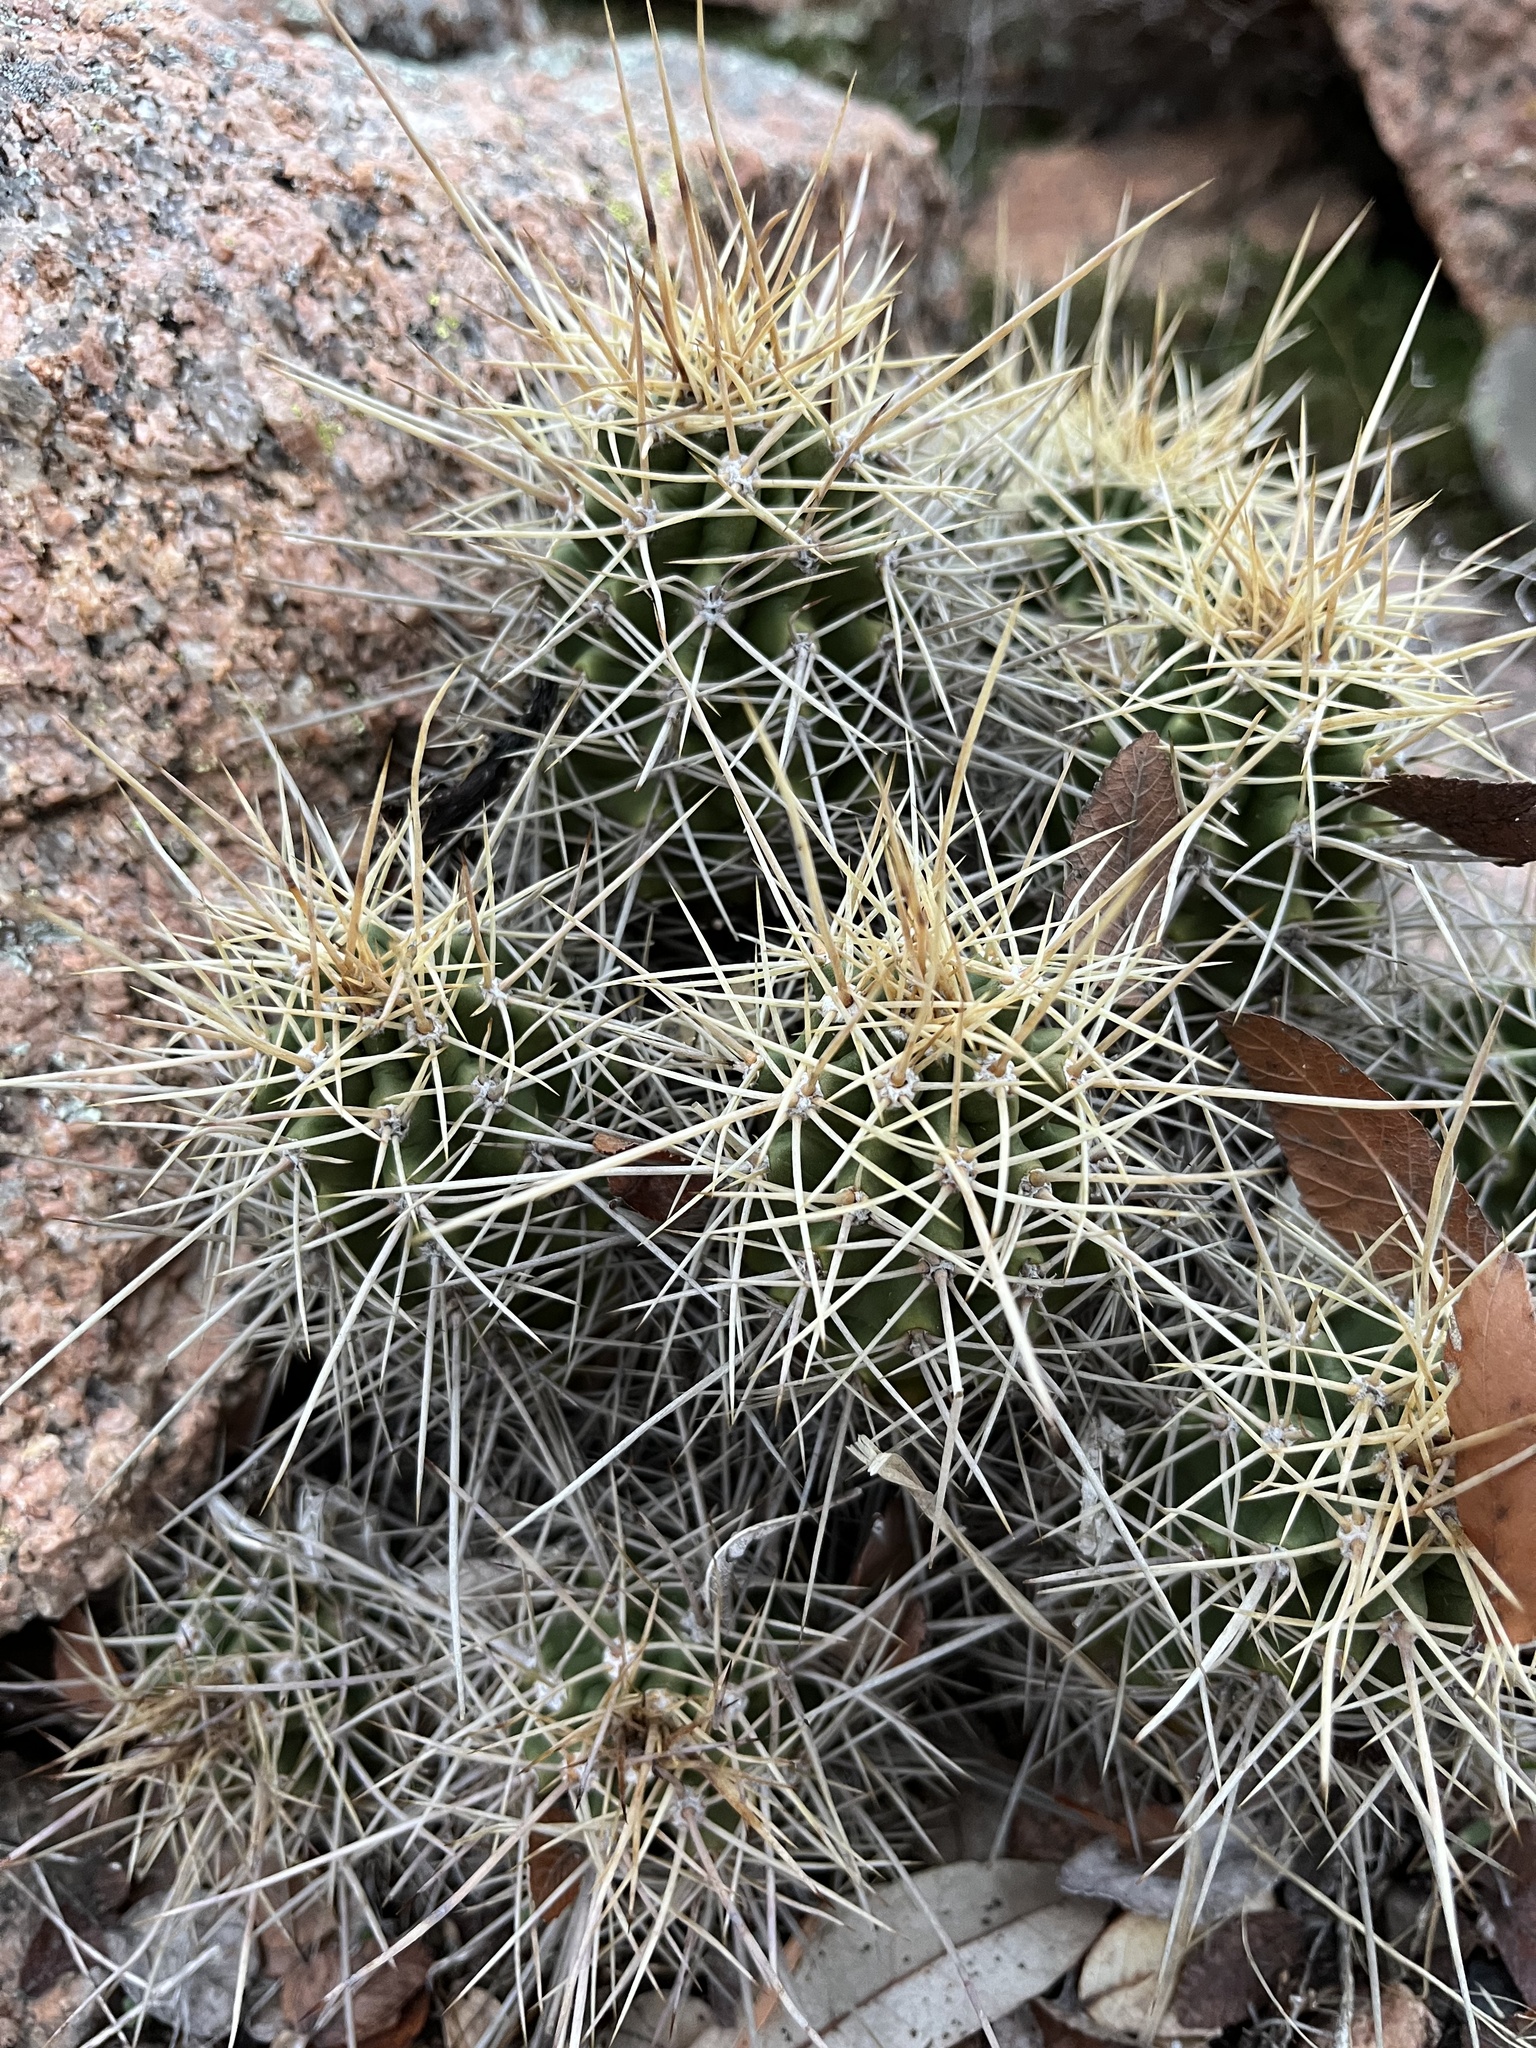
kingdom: Plantae
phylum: Tracheophyta
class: Magnoliopsida
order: Caryophyllales
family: Cactaceae
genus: Echinocereus
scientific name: Echinocereus coccineus
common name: Scarlet hedgehog cactus
